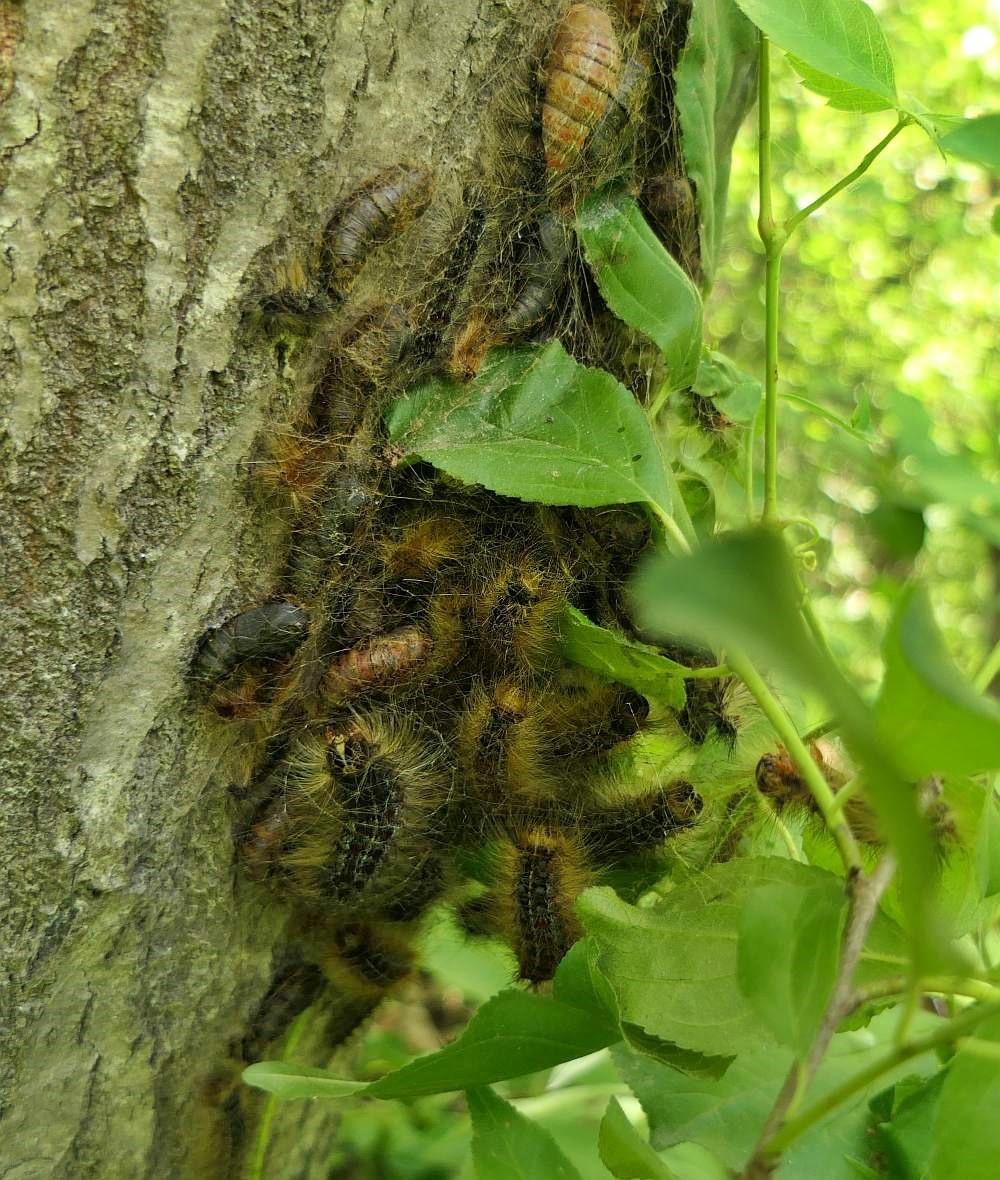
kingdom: Animalia
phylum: Arthropoda
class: Insecta
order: Lepidoptera
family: Erebidae
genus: Lymantria
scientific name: Lymantria dispar
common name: Gypsy moth
